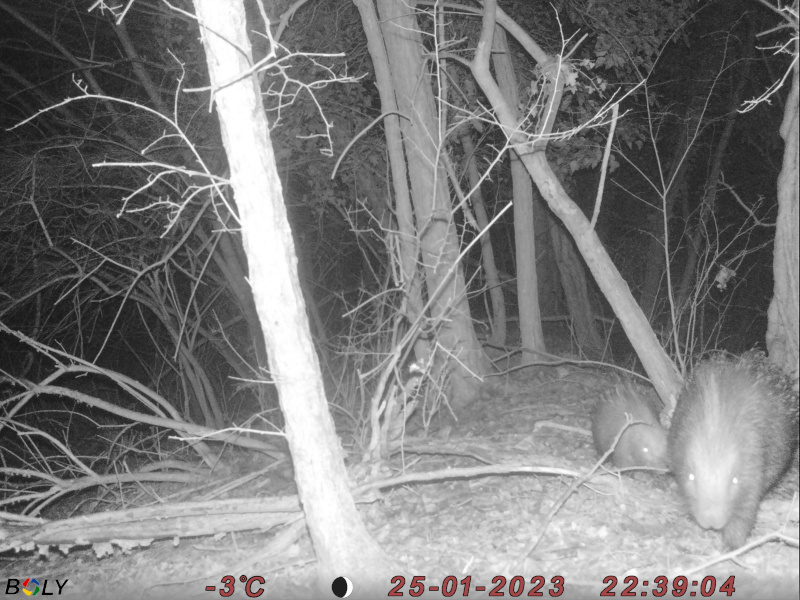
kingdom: Animalia
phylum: Chordata
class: Mammalia
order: Rodentia
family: Hystricidae
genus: Hystrix
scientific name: Hystrix cristata
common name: Crested porcupine
